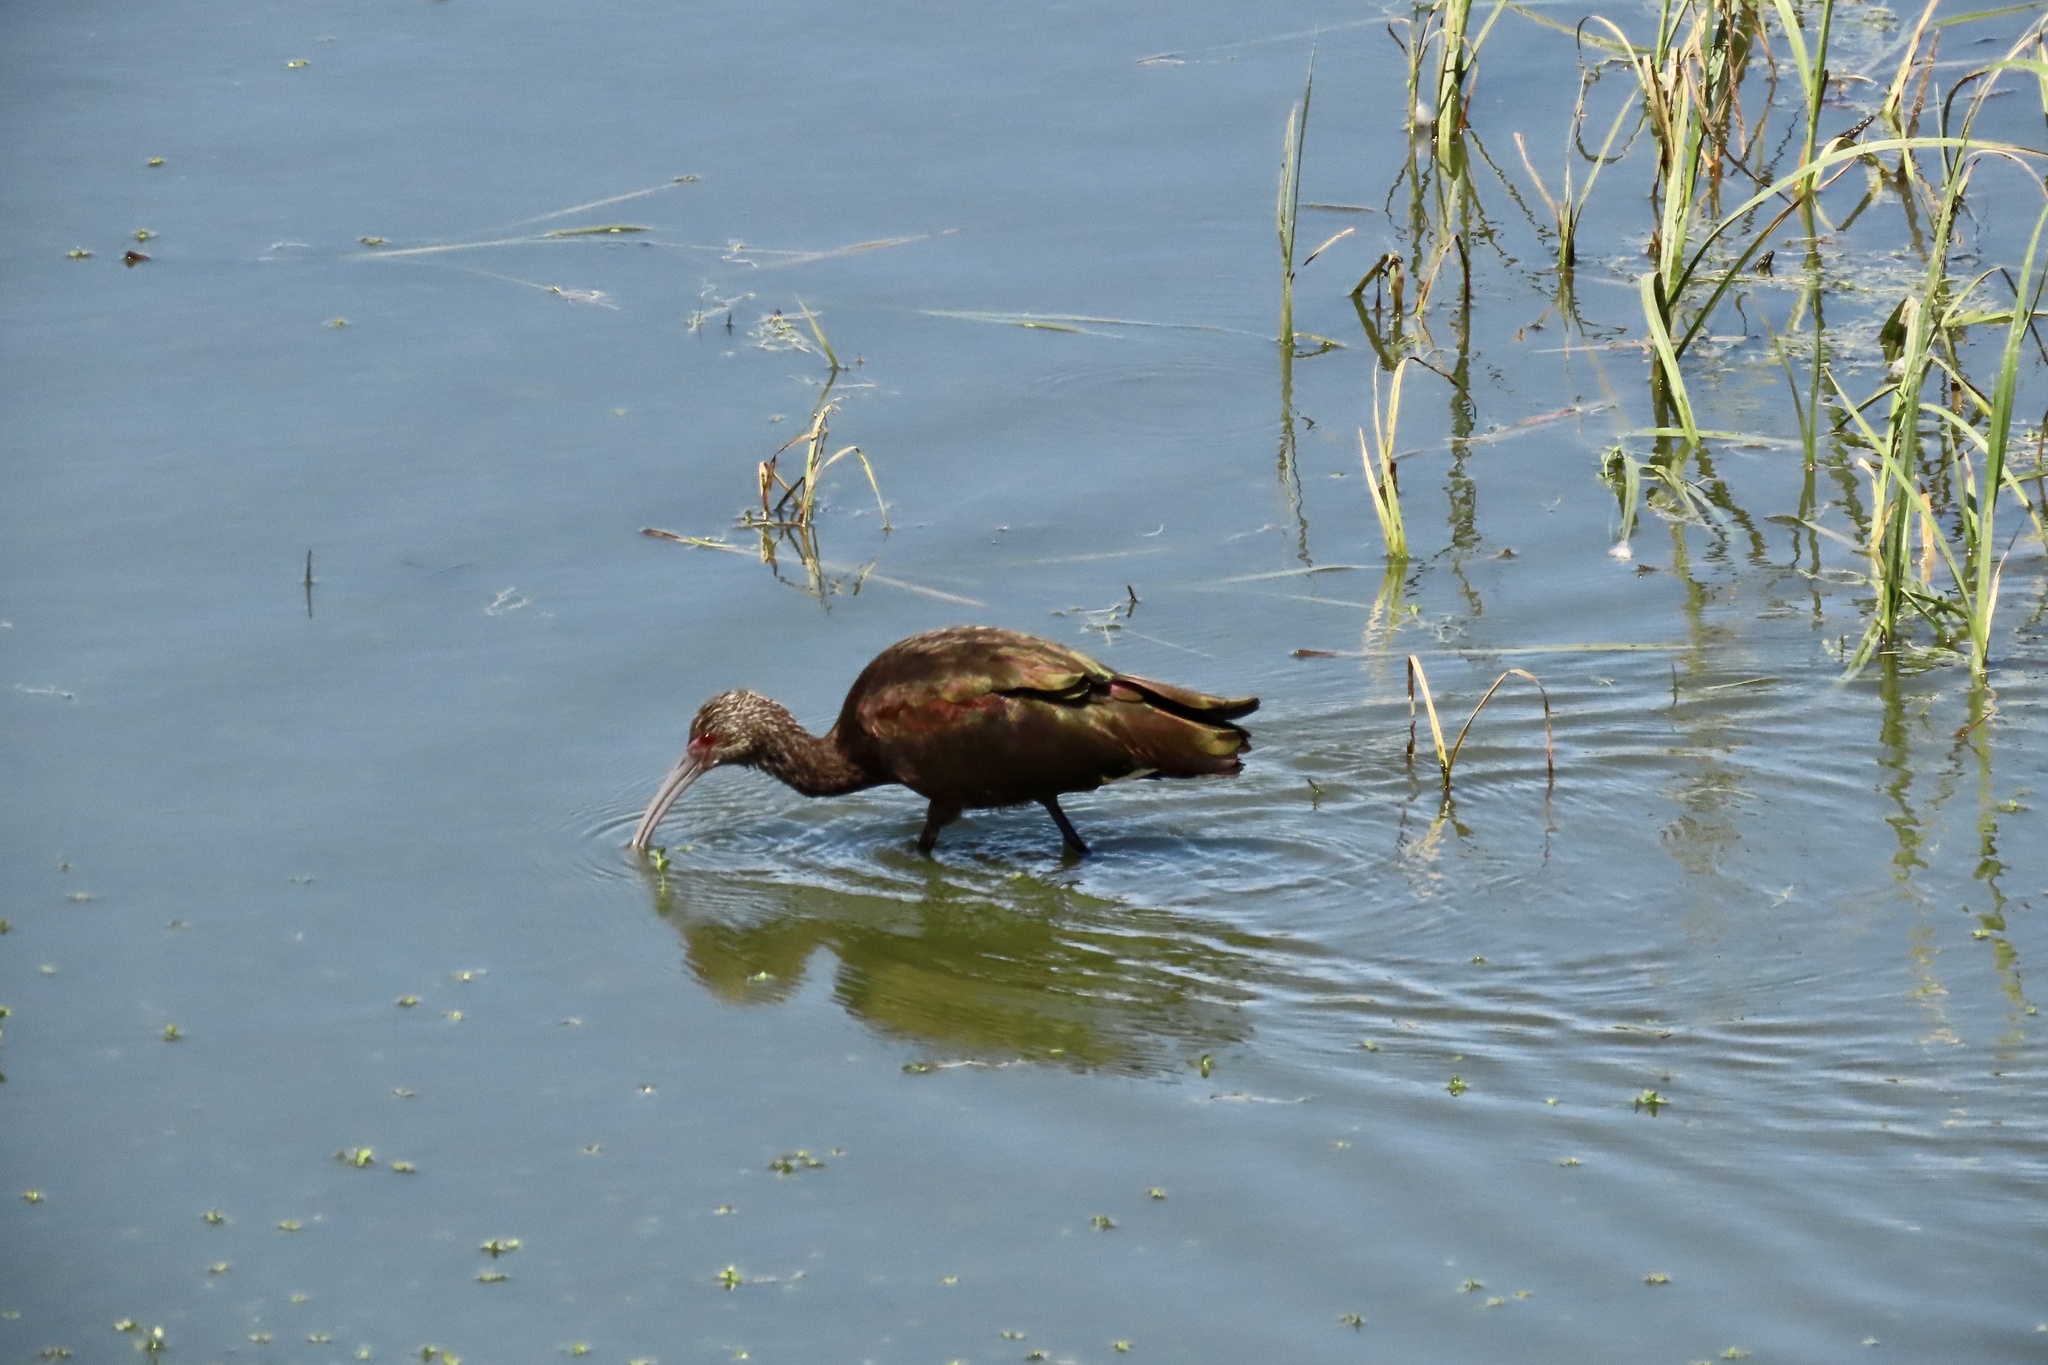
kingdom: Animalia
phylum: Chordata
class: Aves
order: Pelecaniformes
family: Threskiornithidae
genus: Plegadis
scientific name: Plegadis chihi
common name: White-faced ibis
